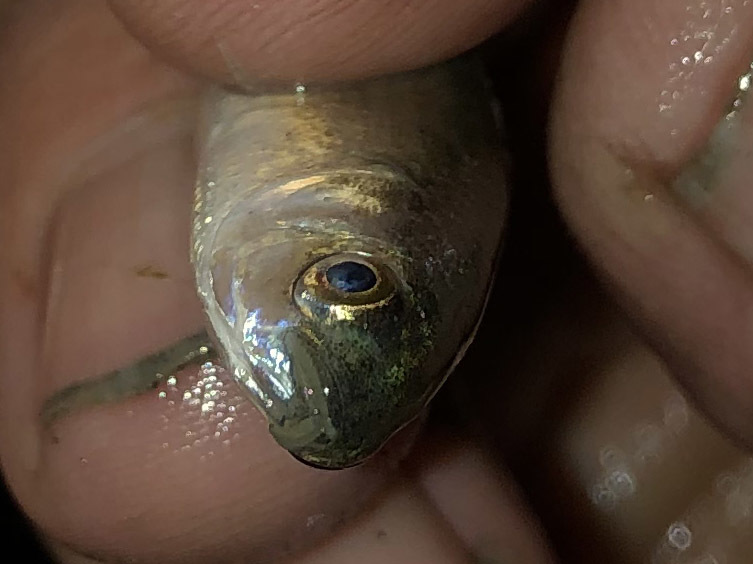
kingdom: Animalia
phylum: Chordata
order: Mugiliformes
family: Mugilidae
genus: Mugil
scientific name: Mugil cephalus
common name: Grey mullet
